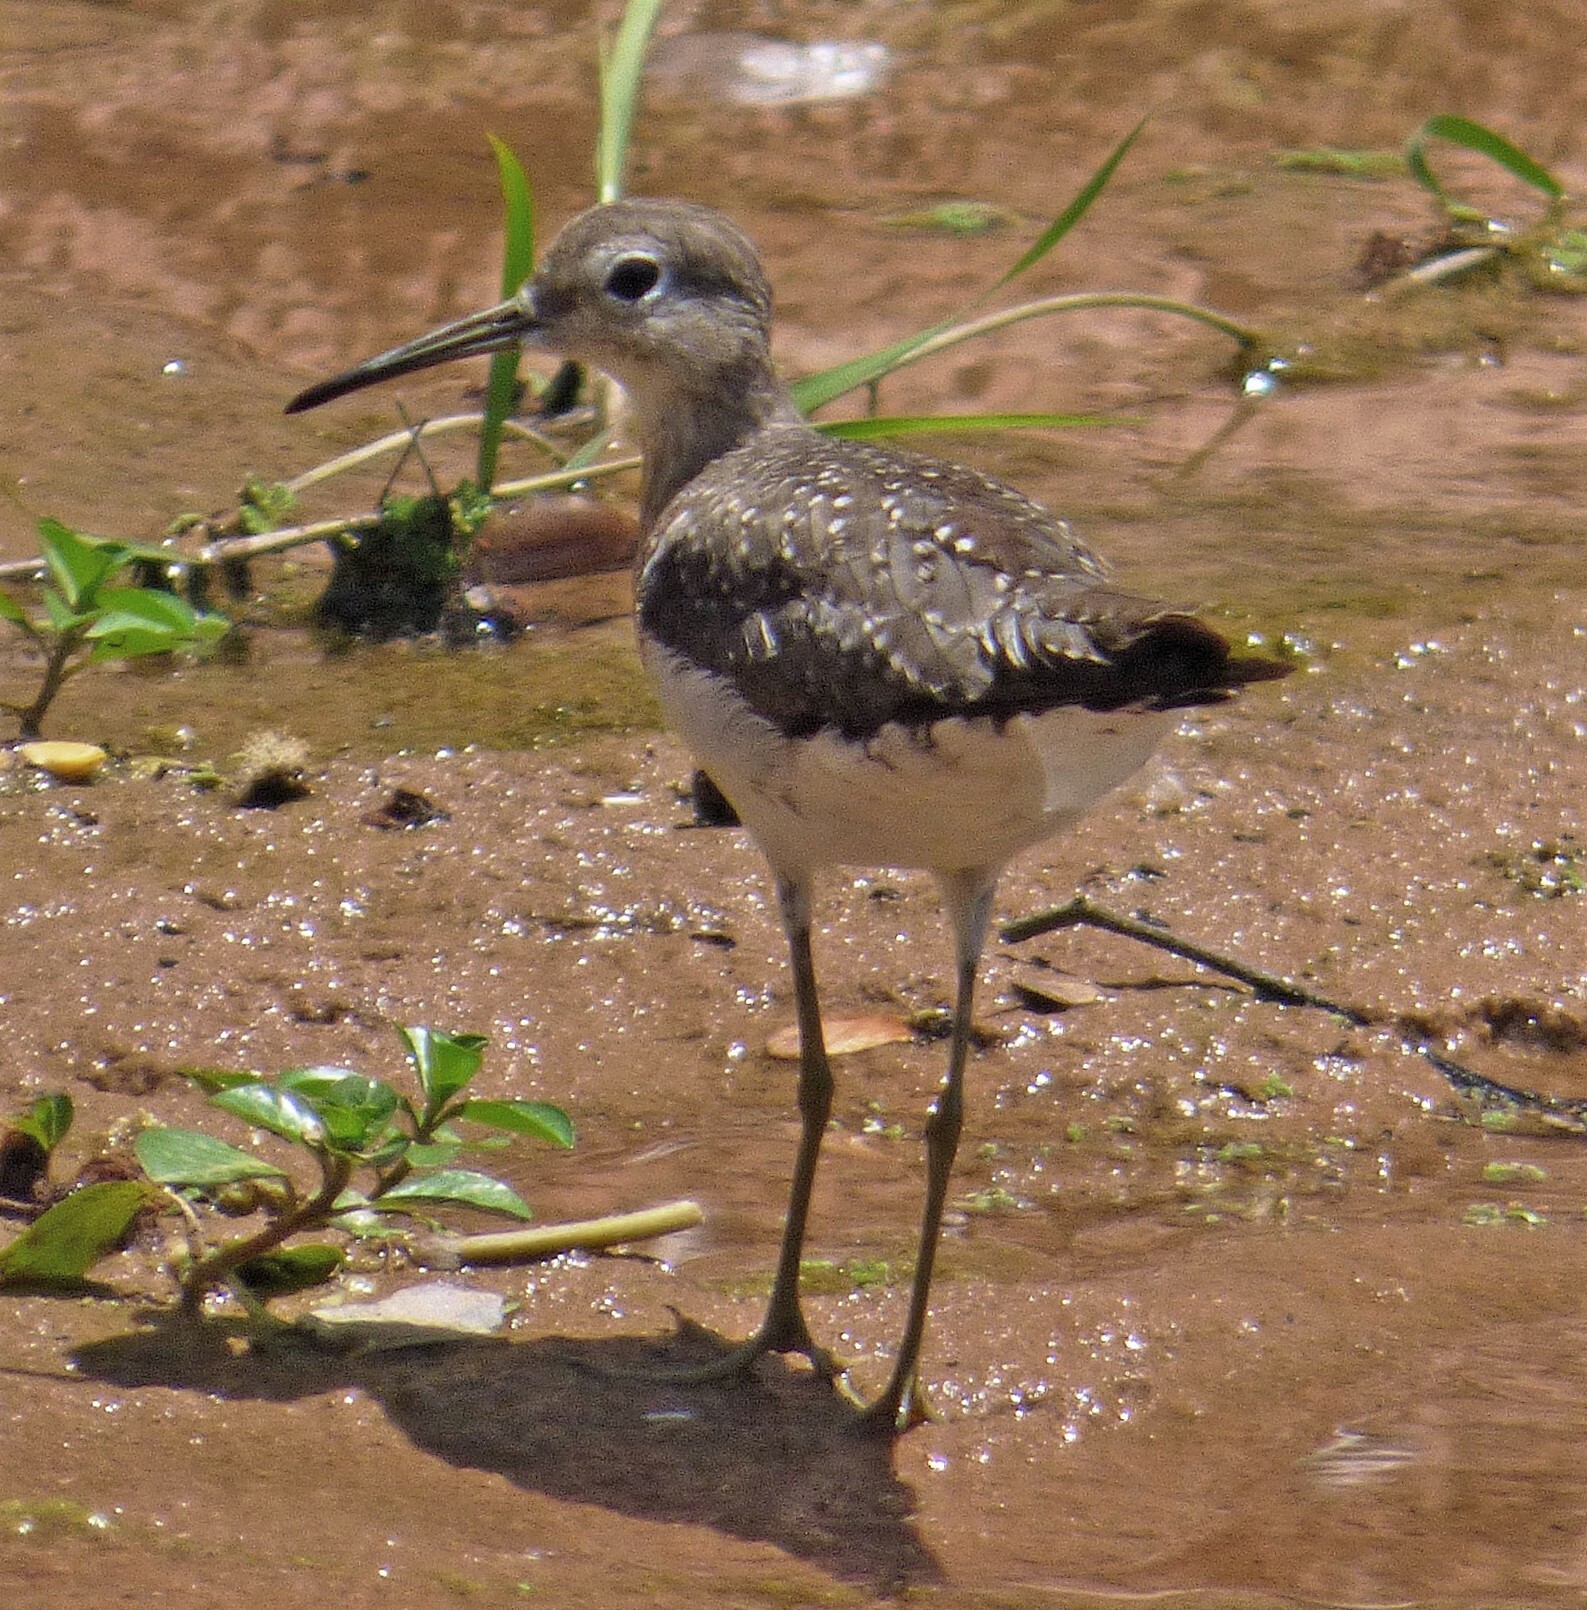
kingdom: Animalia
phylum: Chordata
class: Aves
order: Charadriiformes
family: Scolopacidae
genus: Tringa
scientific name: Tringa solitaria
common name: Solitary sandpiper
